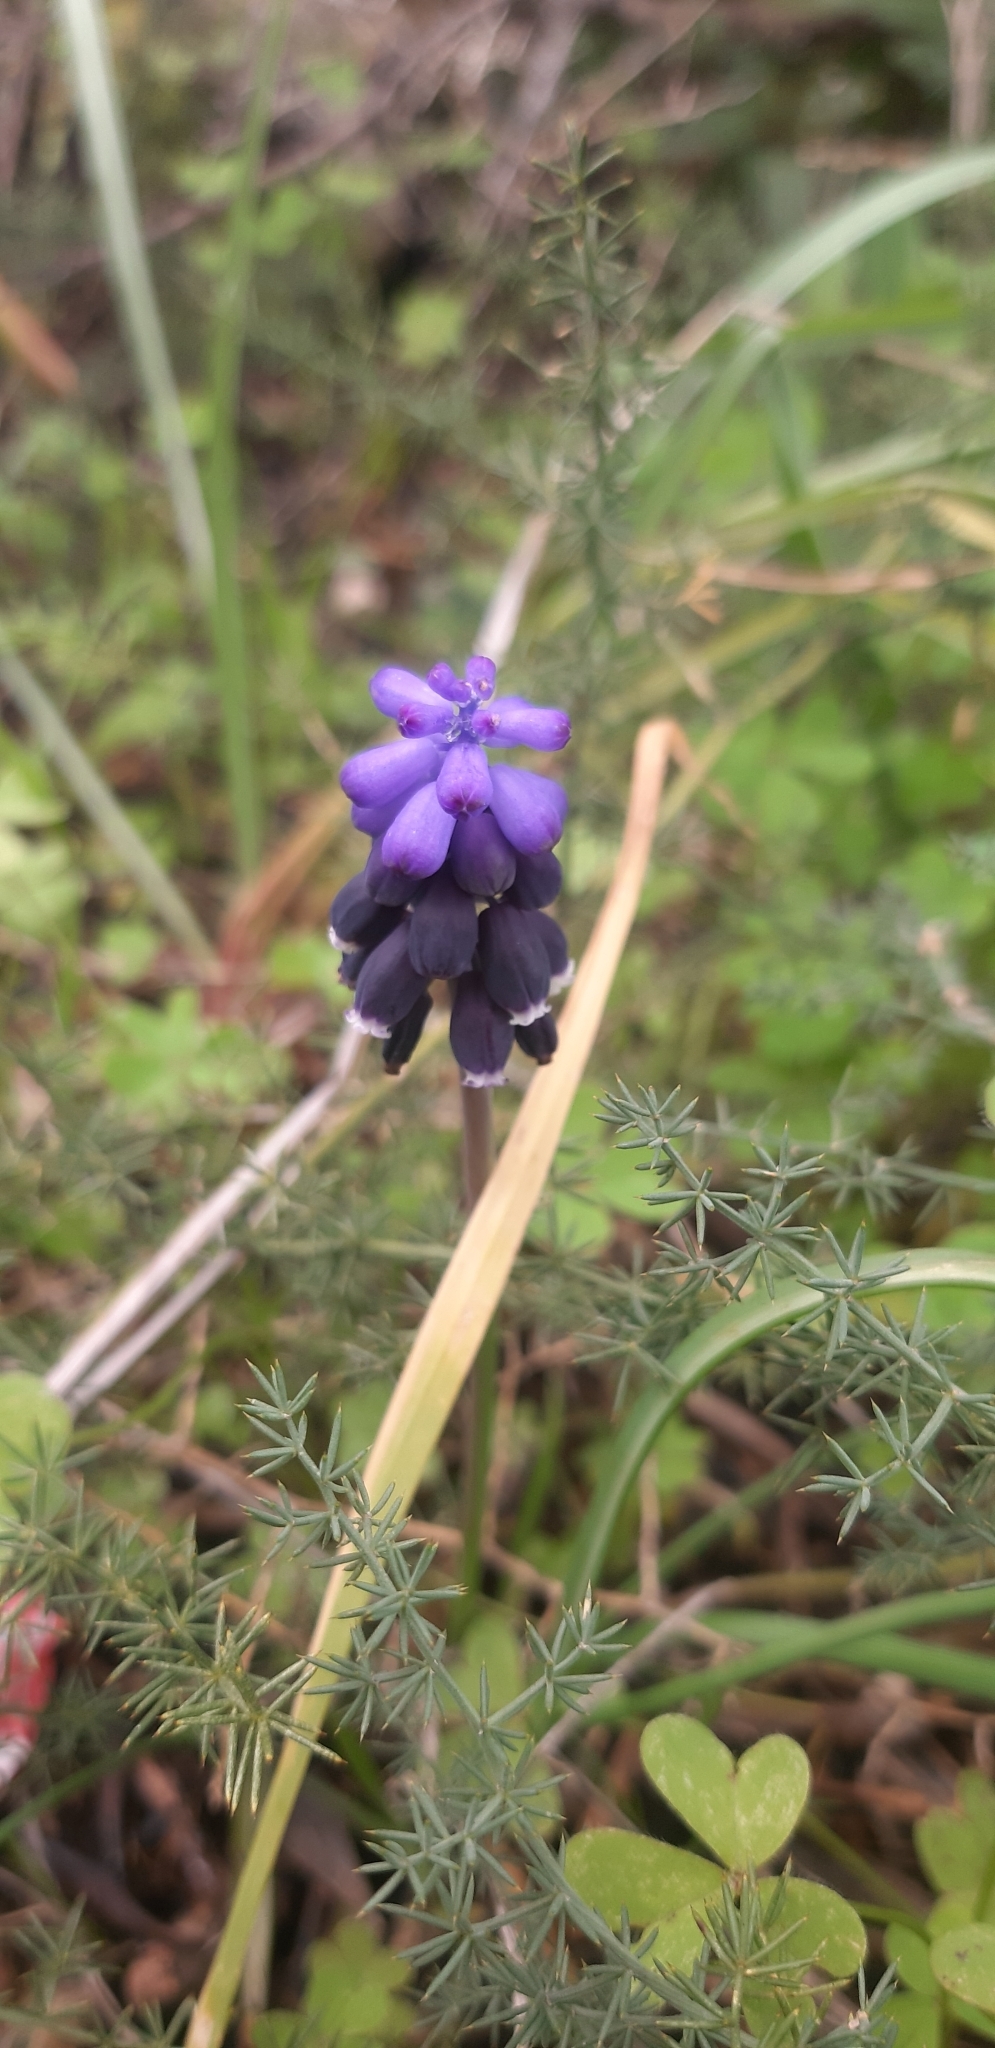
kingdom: Plantae
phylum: Tracheophyta
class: Liliopsida
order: Asparagales
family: Asparagaceae
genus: Muscari
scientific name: Muscari neglectum
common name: Grape-hyacinth
